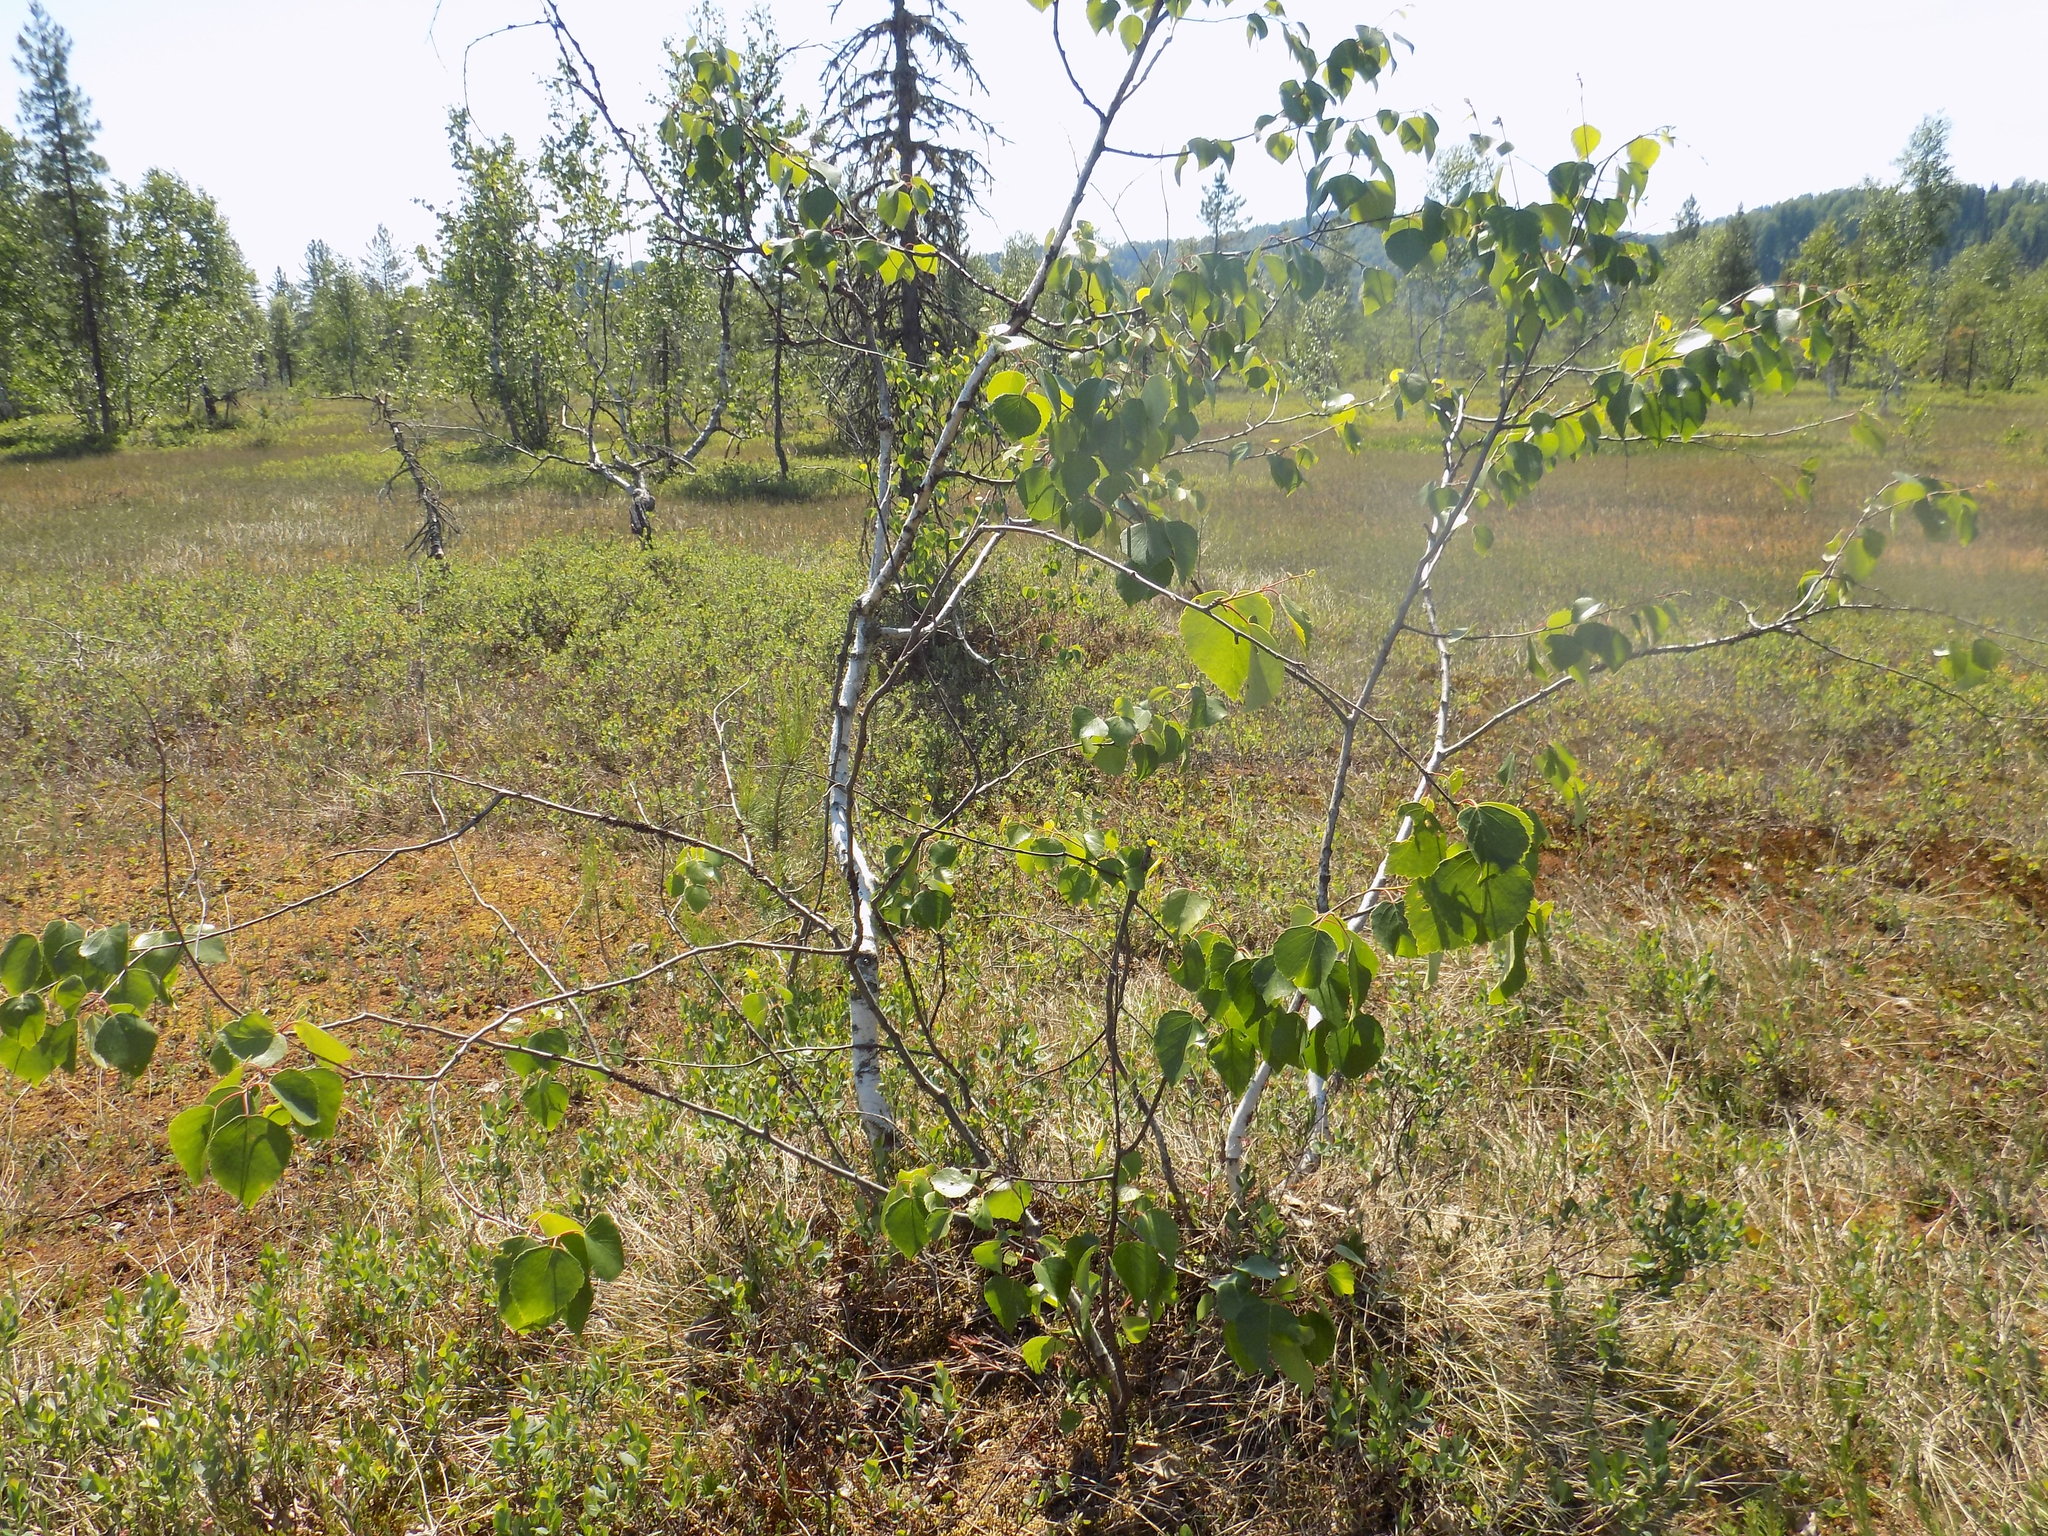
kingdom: Plantae
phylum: Tracheophyta
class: Magnoliopsida
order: Fagales
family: Betulaceae
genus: Betula
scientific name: Betula pubescens
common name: Downy birch
